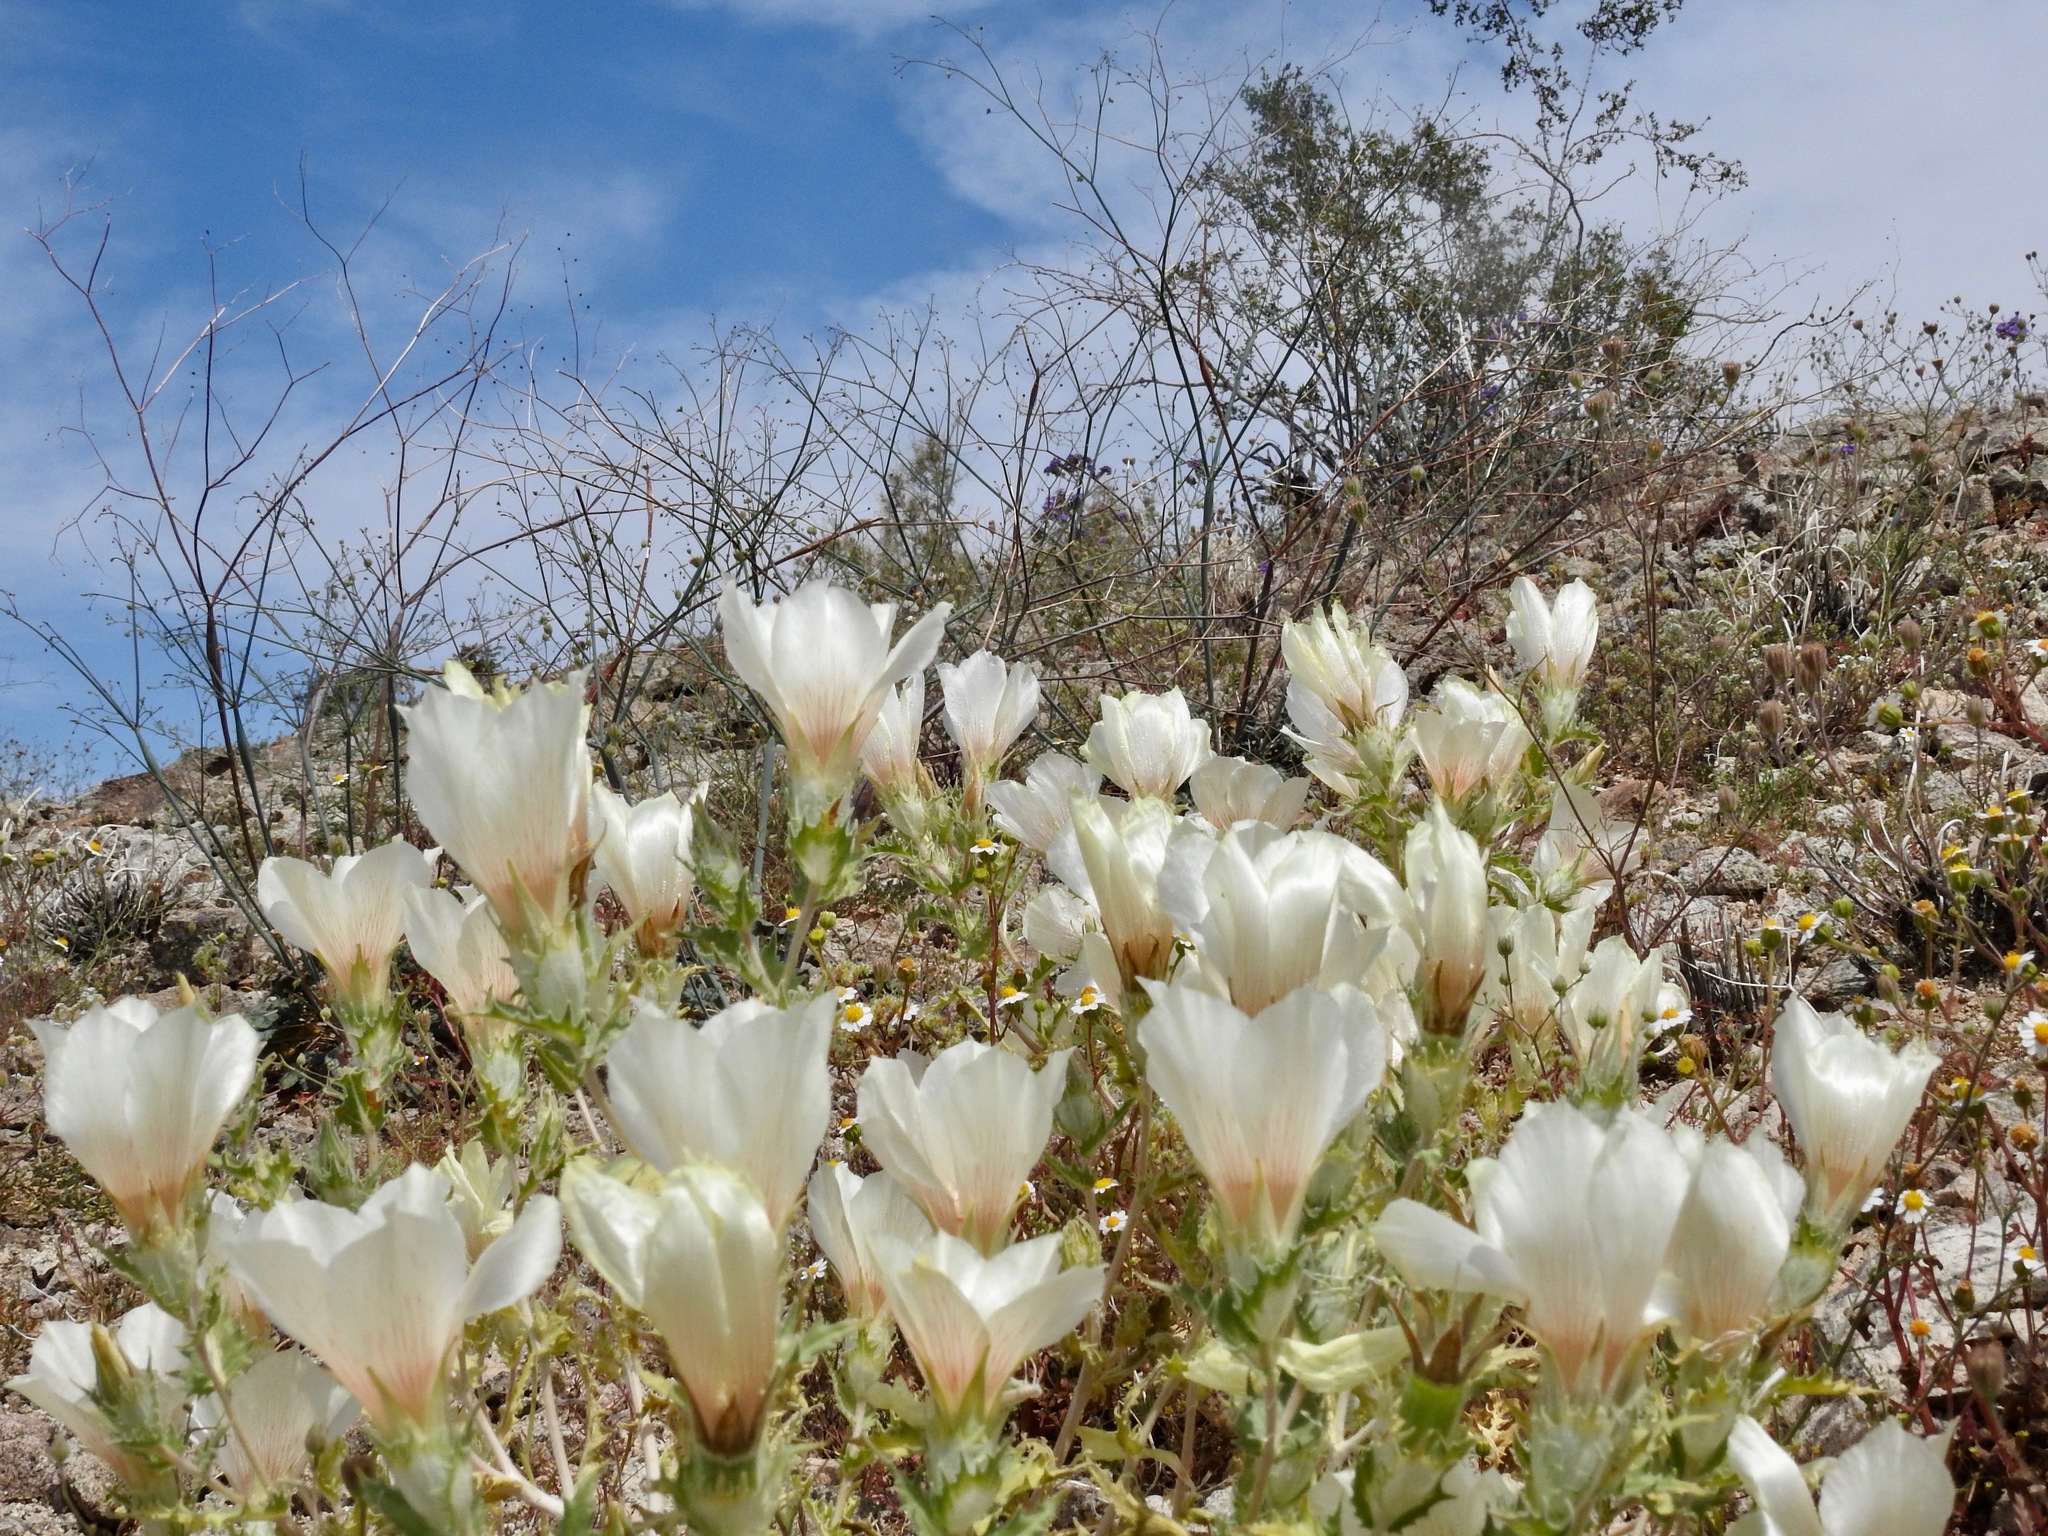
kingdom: Plantae
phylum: Tracheophyta
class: Magnoliopsida
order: Cornales
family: Loasaceae
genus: Mentzelia
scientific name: Mentzelia involucrata
